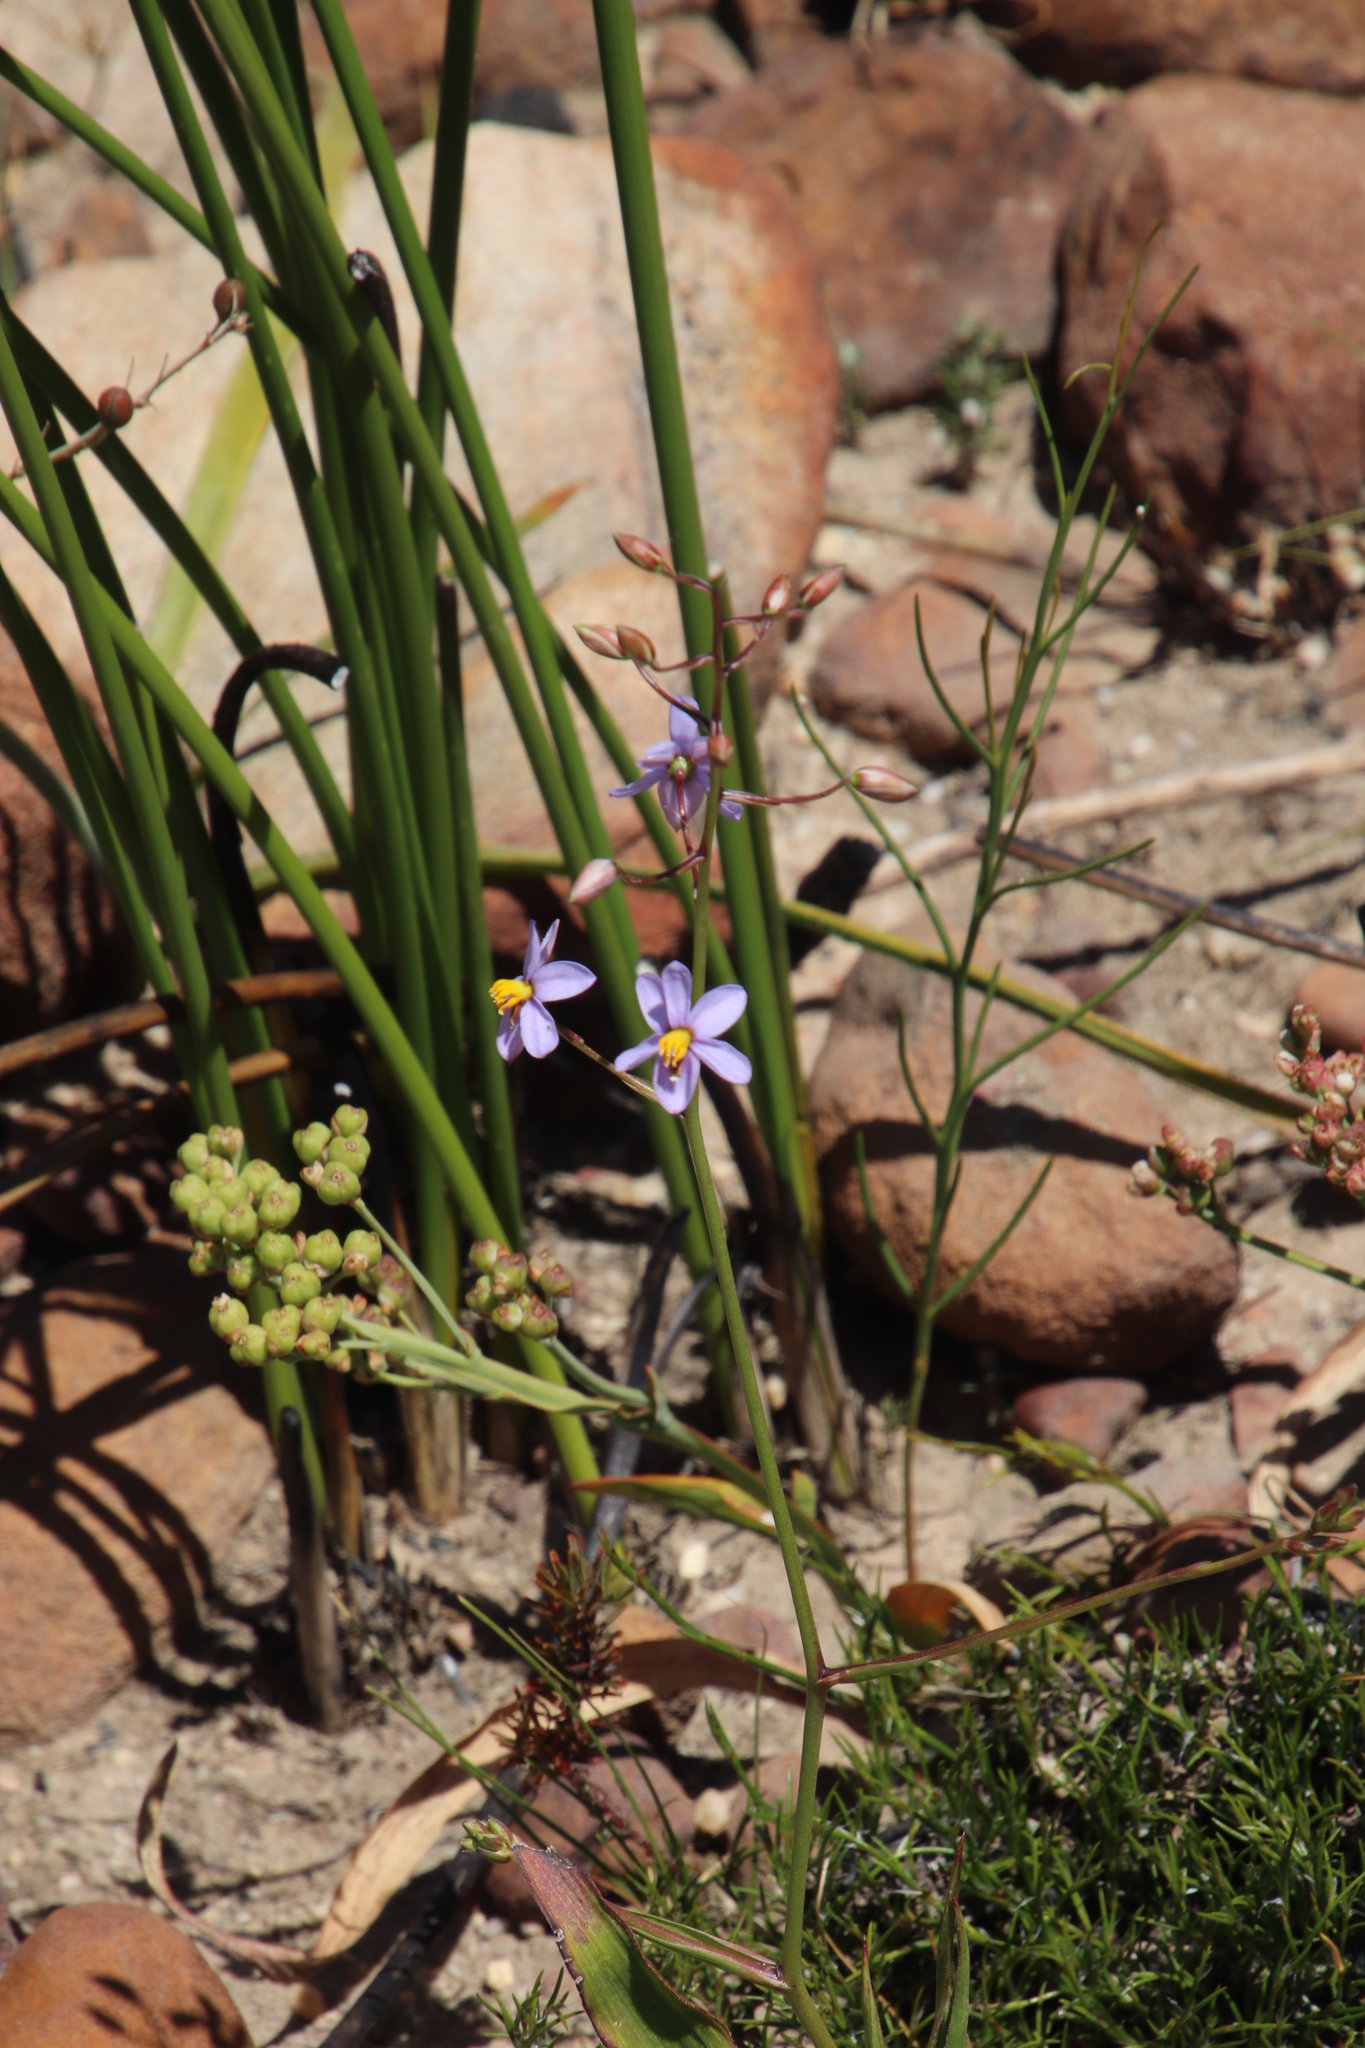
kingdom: Plantae
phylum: Tracheophyta
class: Liliopsida
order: Asparagales
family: Tecophilaeaceae
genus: Cyanella
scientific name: Cyanella hyacinthoides
